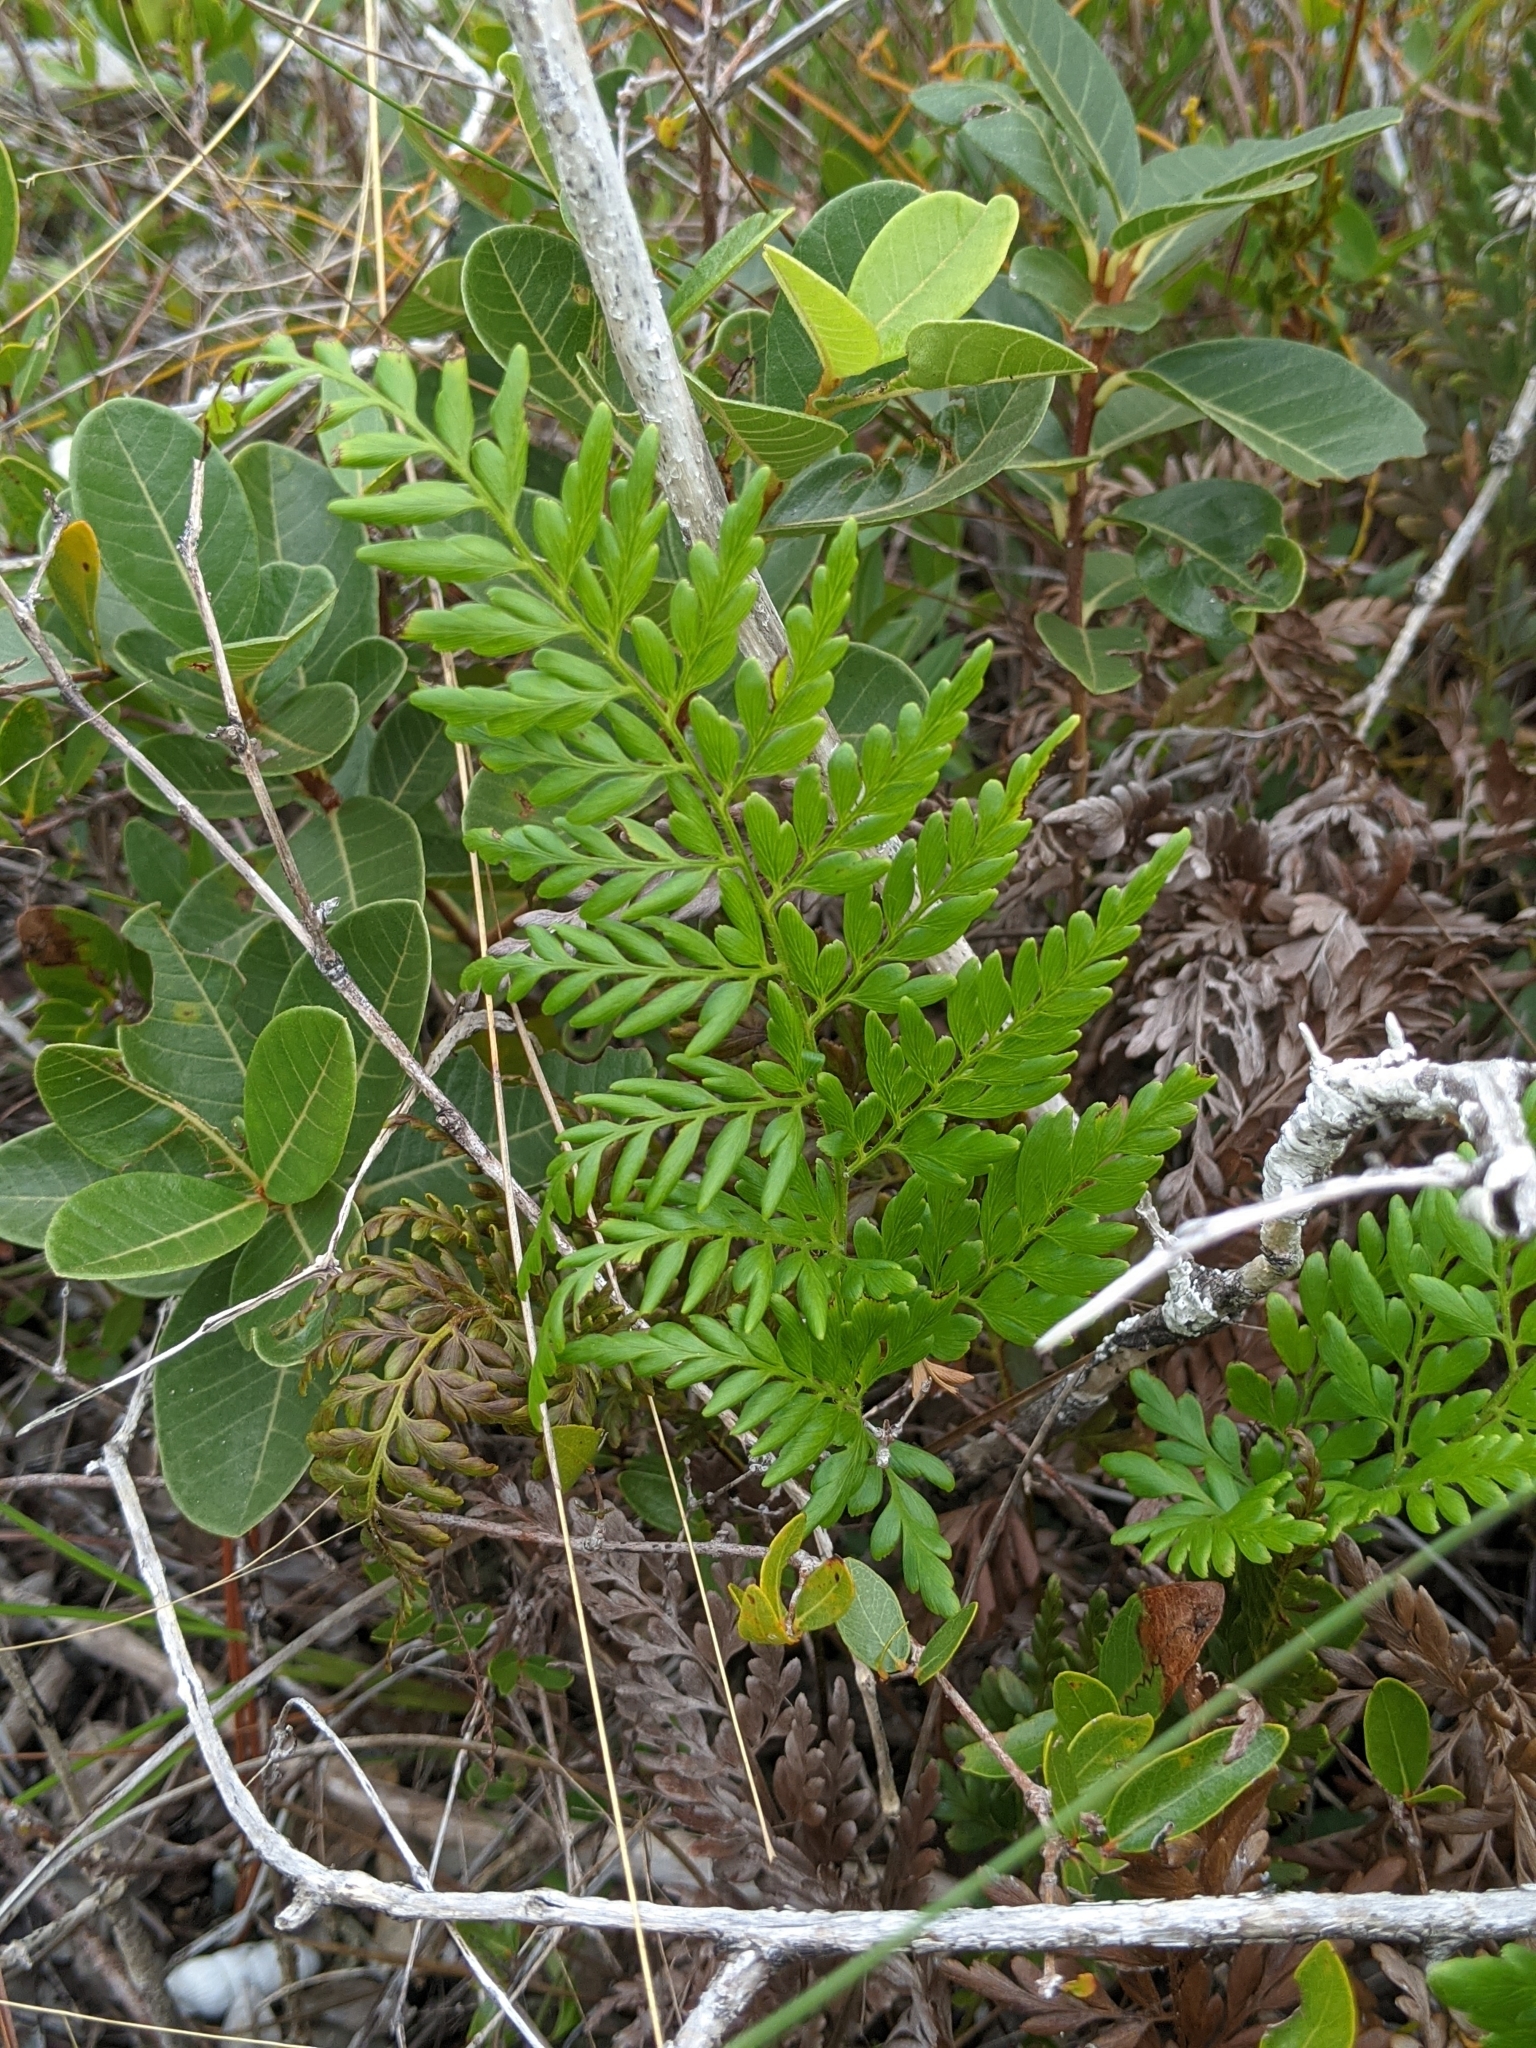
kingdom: Plantae
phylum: Tracheophyta
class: Polypodiopsida
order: Schizaeales
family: Anemiaceae
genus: Anemia
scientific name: Anemia adiantifolia
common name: Pine fern
